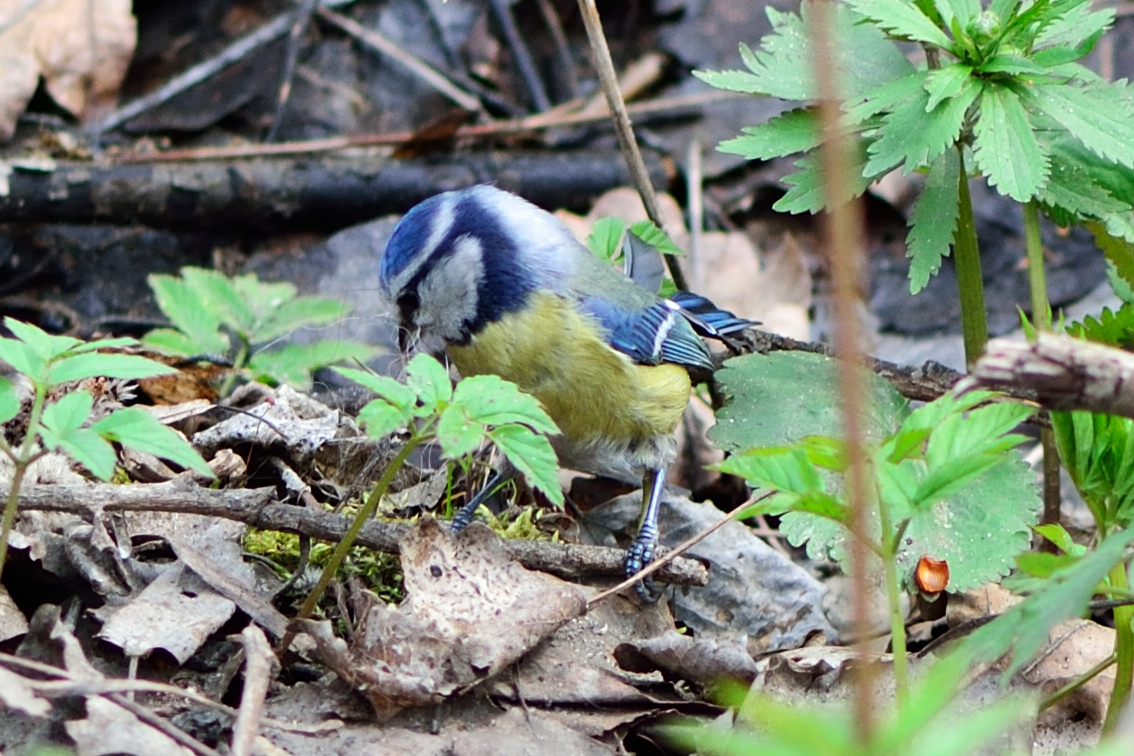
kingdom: Animalia
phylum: Chordata
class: Aves
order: Passeriformes
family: Paridae
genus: Cyanistes
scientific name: Cyanistes caeruleus
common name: Eurasian blue tit
